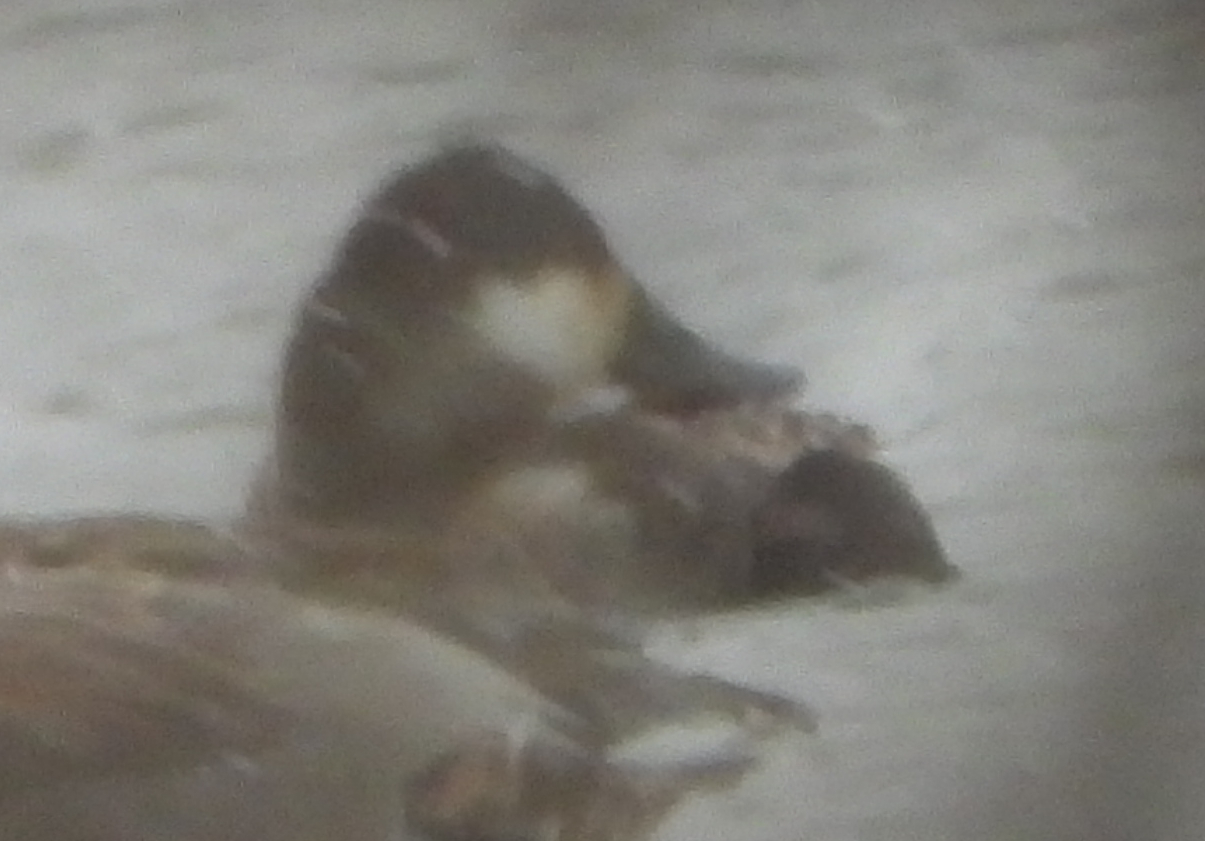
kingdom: Animalia
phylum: Chordata
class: Aves
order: Anseriformes
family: Anatidae
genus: Oxyura
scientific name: Oxyura jamaicensis
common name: Ruddy duck
